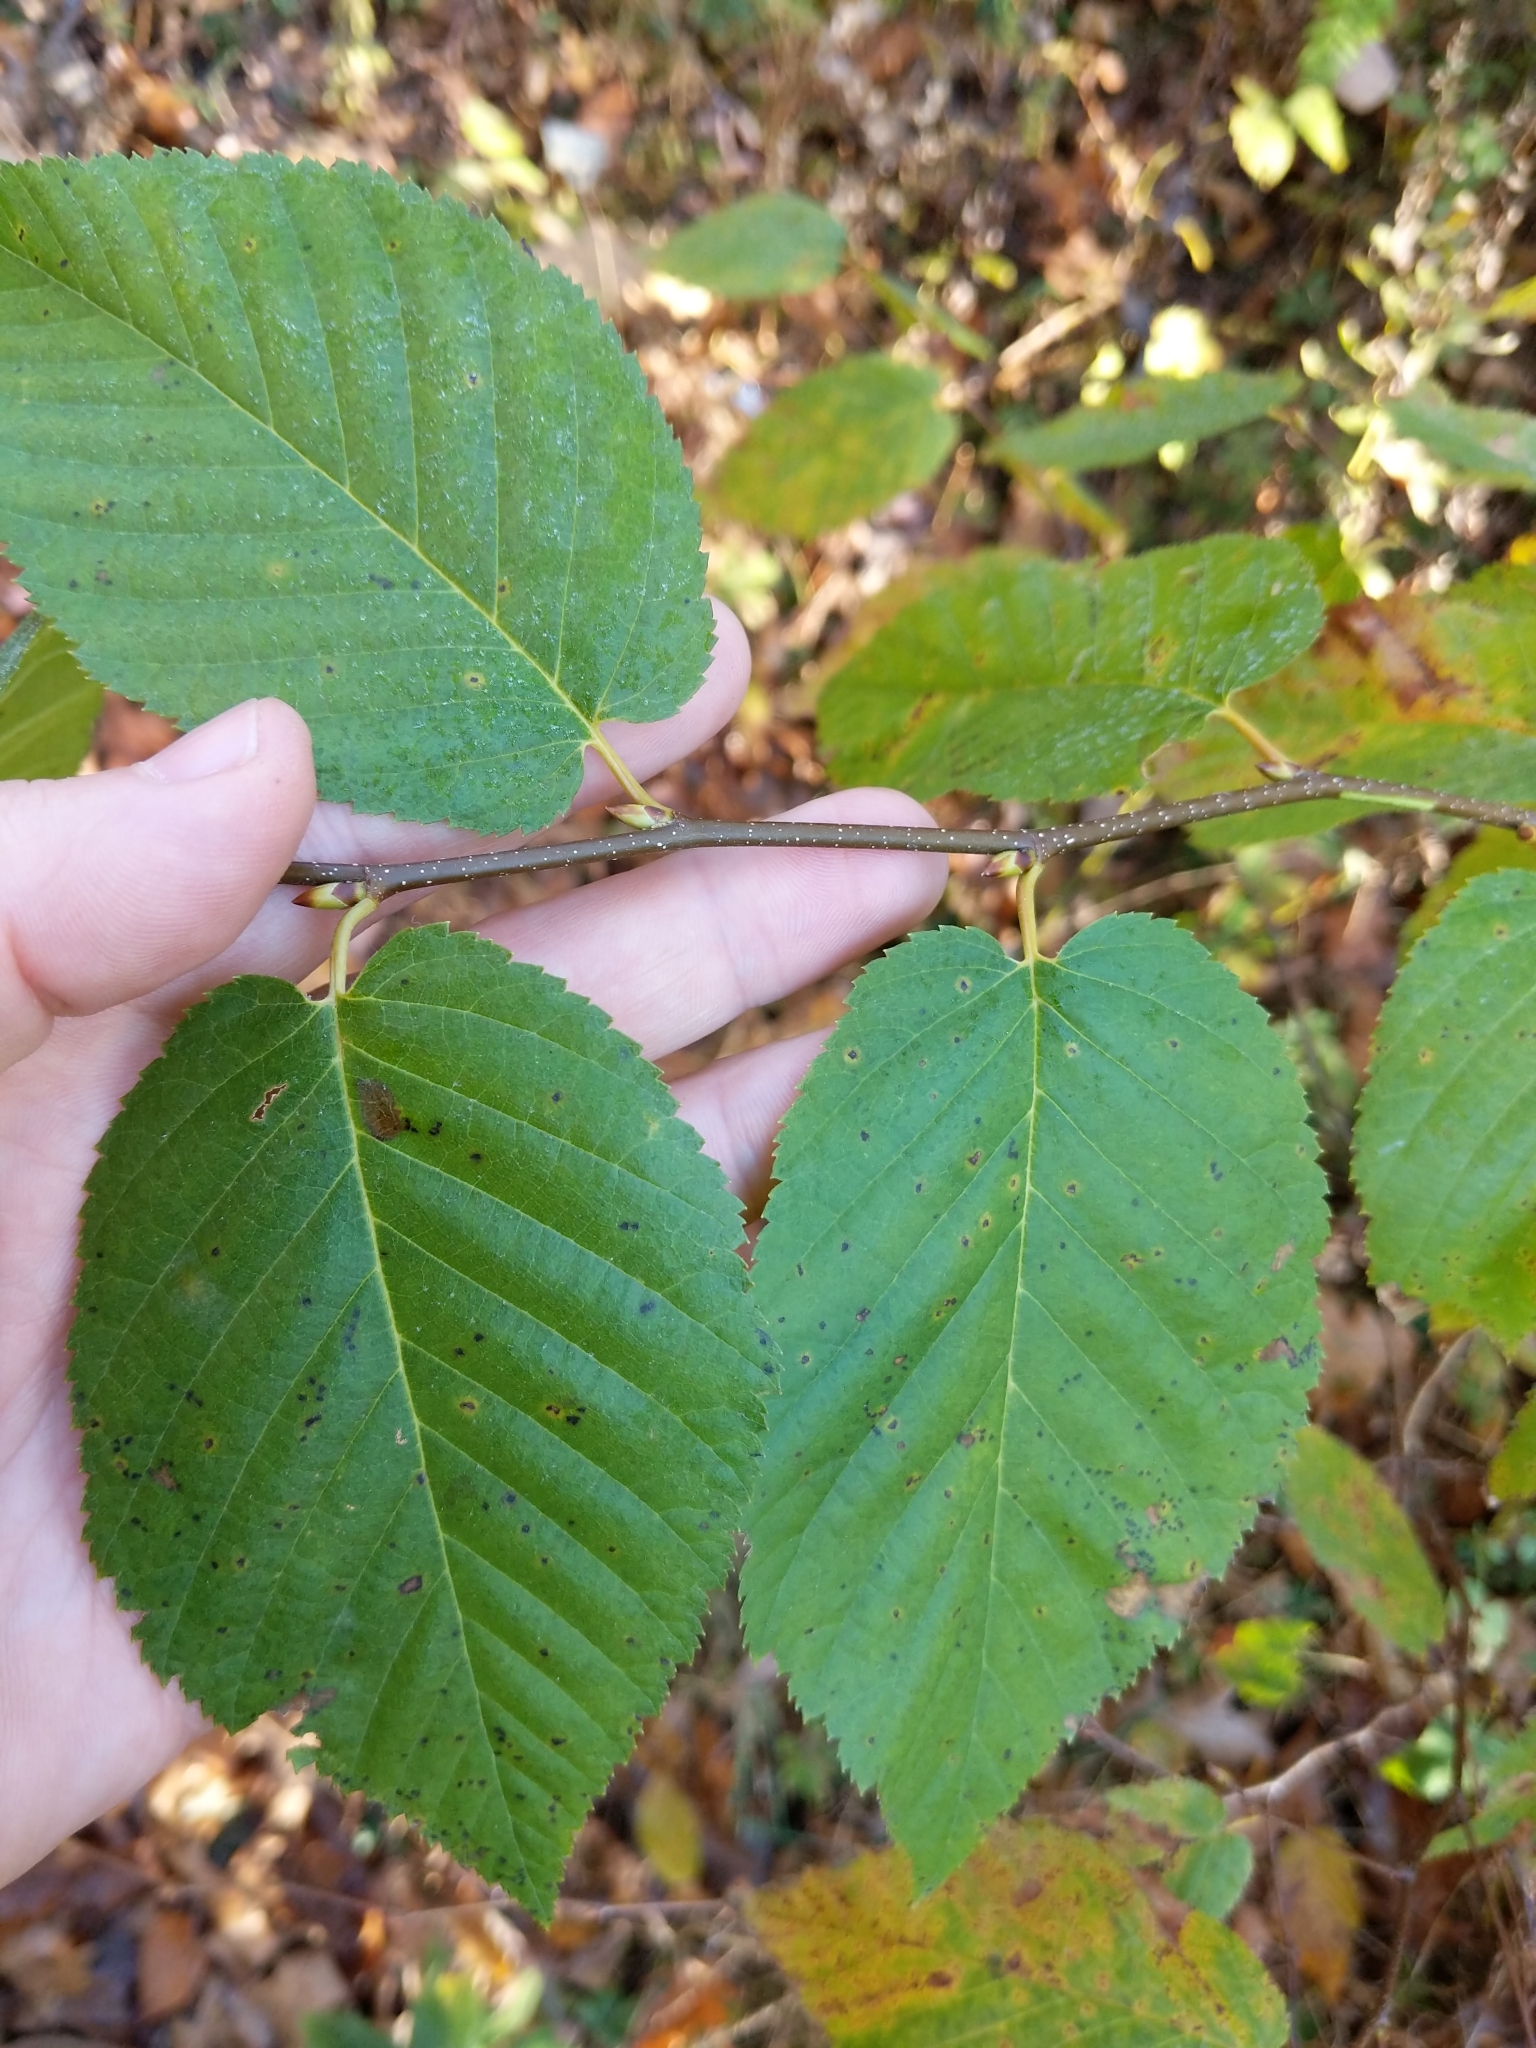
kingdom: Plantae
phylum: Tracheophyta
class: Magnoliopsida
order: Fagales
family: Betulaceae
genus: Betula
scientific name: Betula lenta
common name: Black birch
